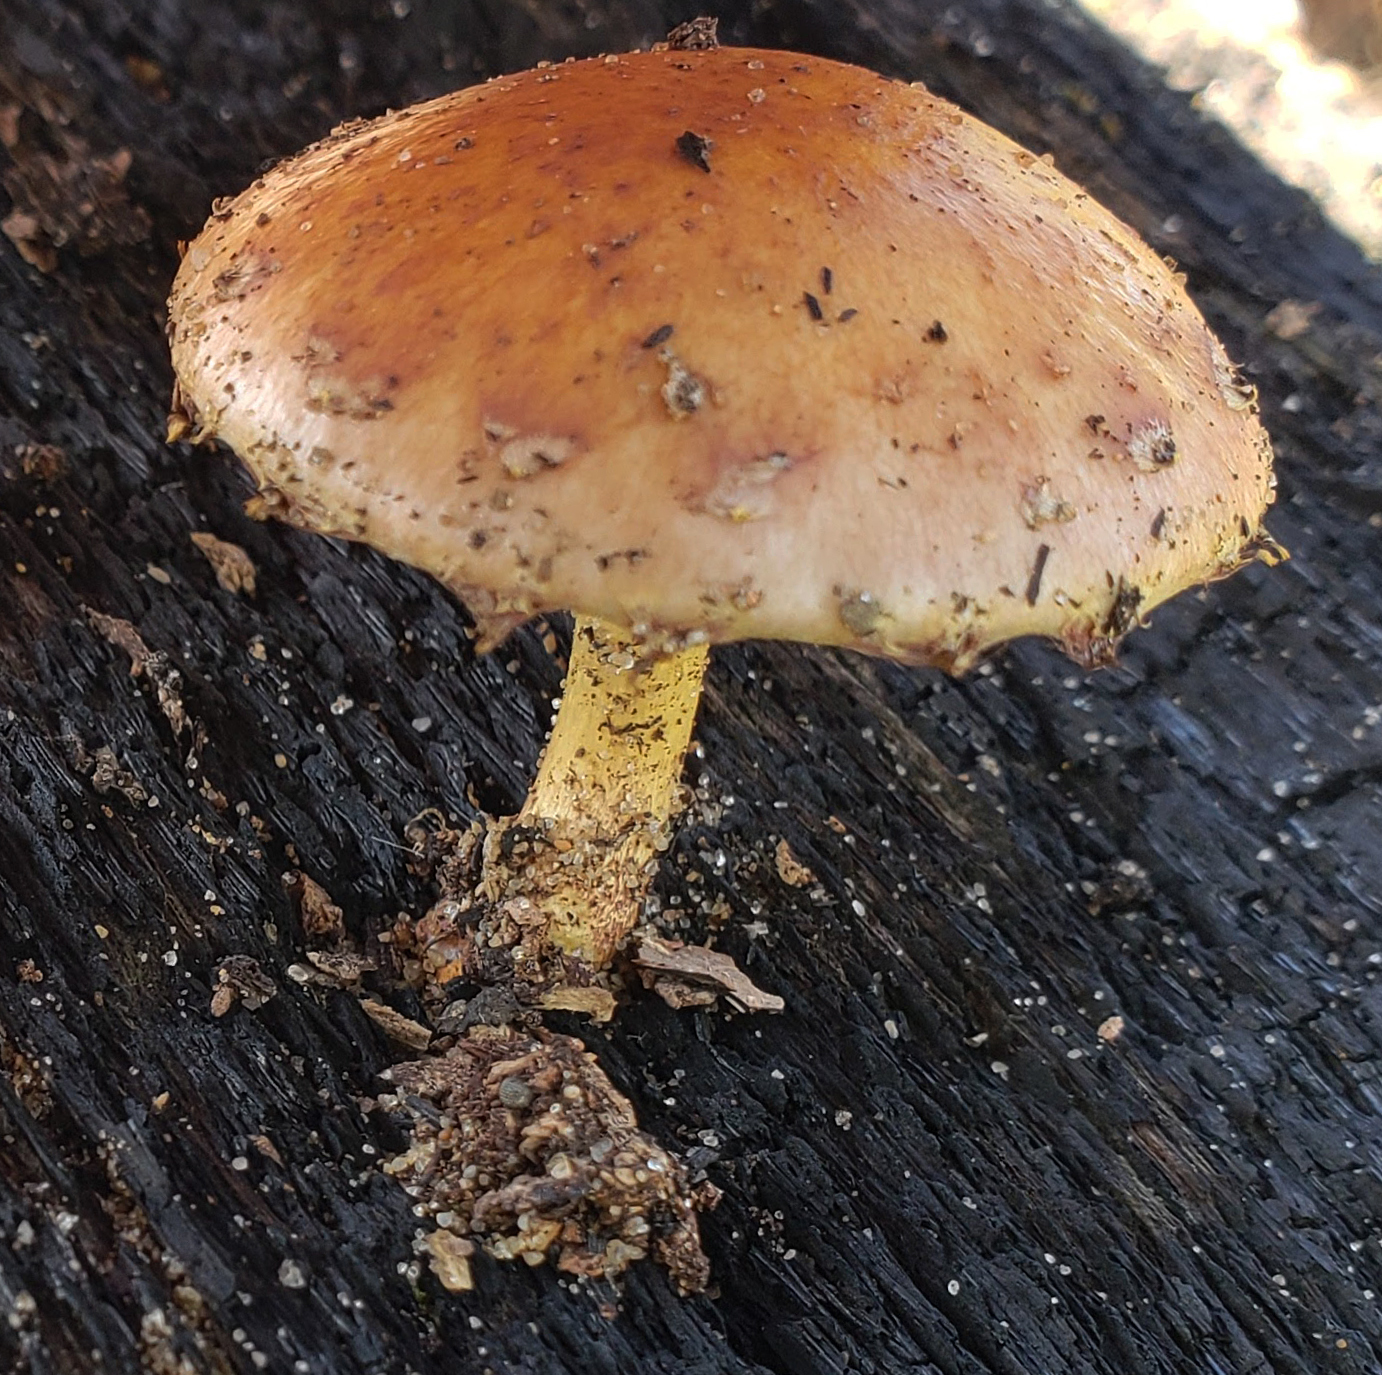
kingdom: Fungi
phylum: Basidiomycota
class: Agaricomycetes
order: Agaricales
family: Strophariaceae
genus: Pholiota
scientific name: Pholiota polychroa
